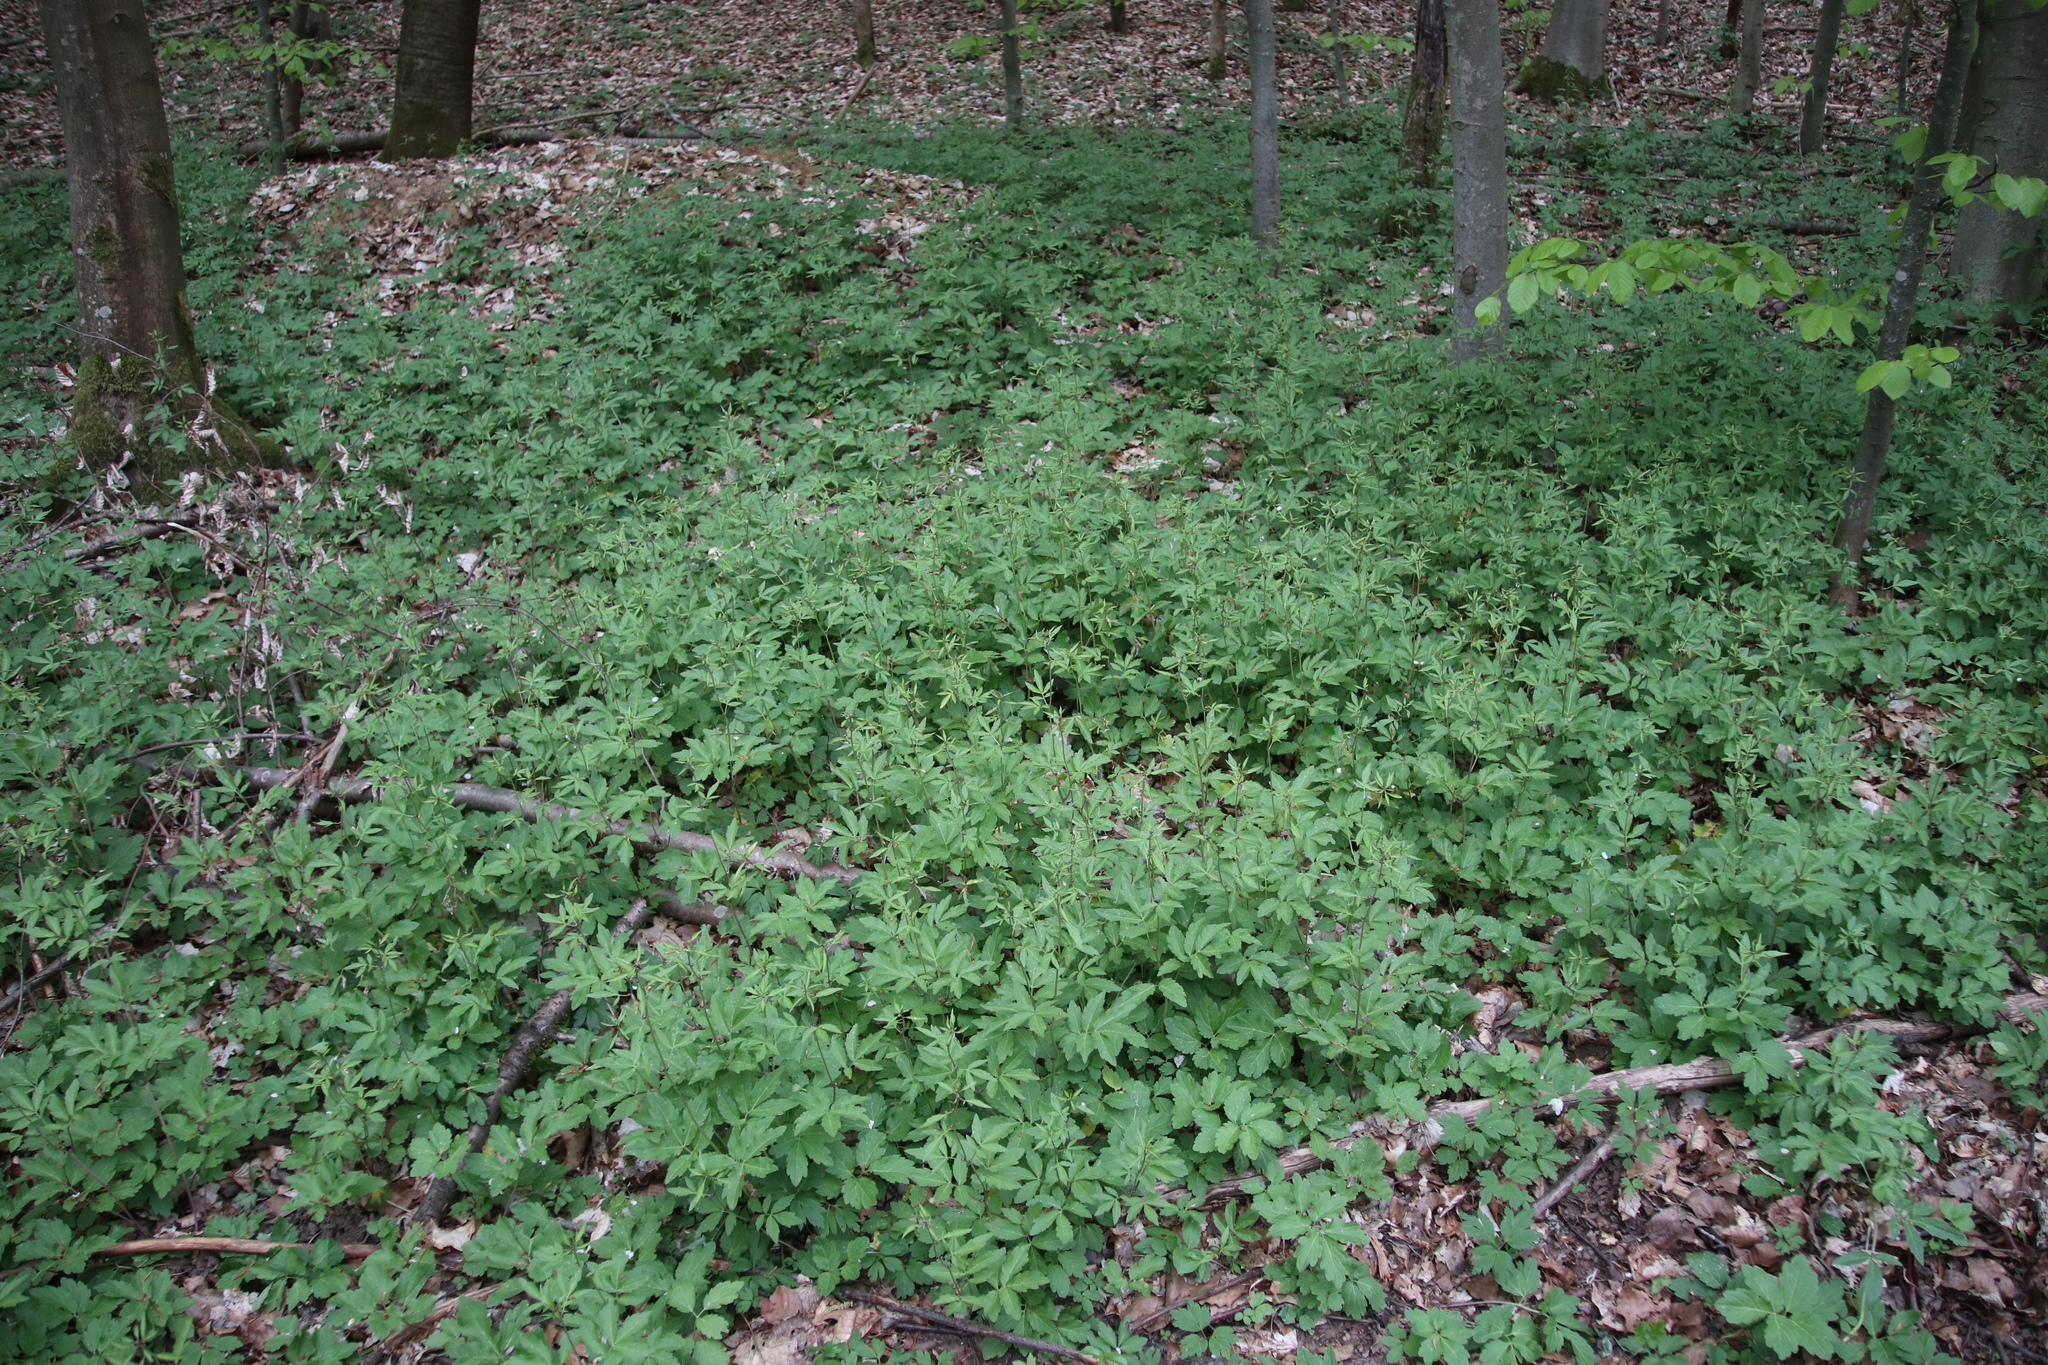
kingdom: Plantae
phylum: Tracheophyta
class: Magnoliopsida
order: Brassicales
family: Brassicaceae
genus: Cardamine
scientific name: Cardamine bulbifera
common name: Coralroot bittercress
